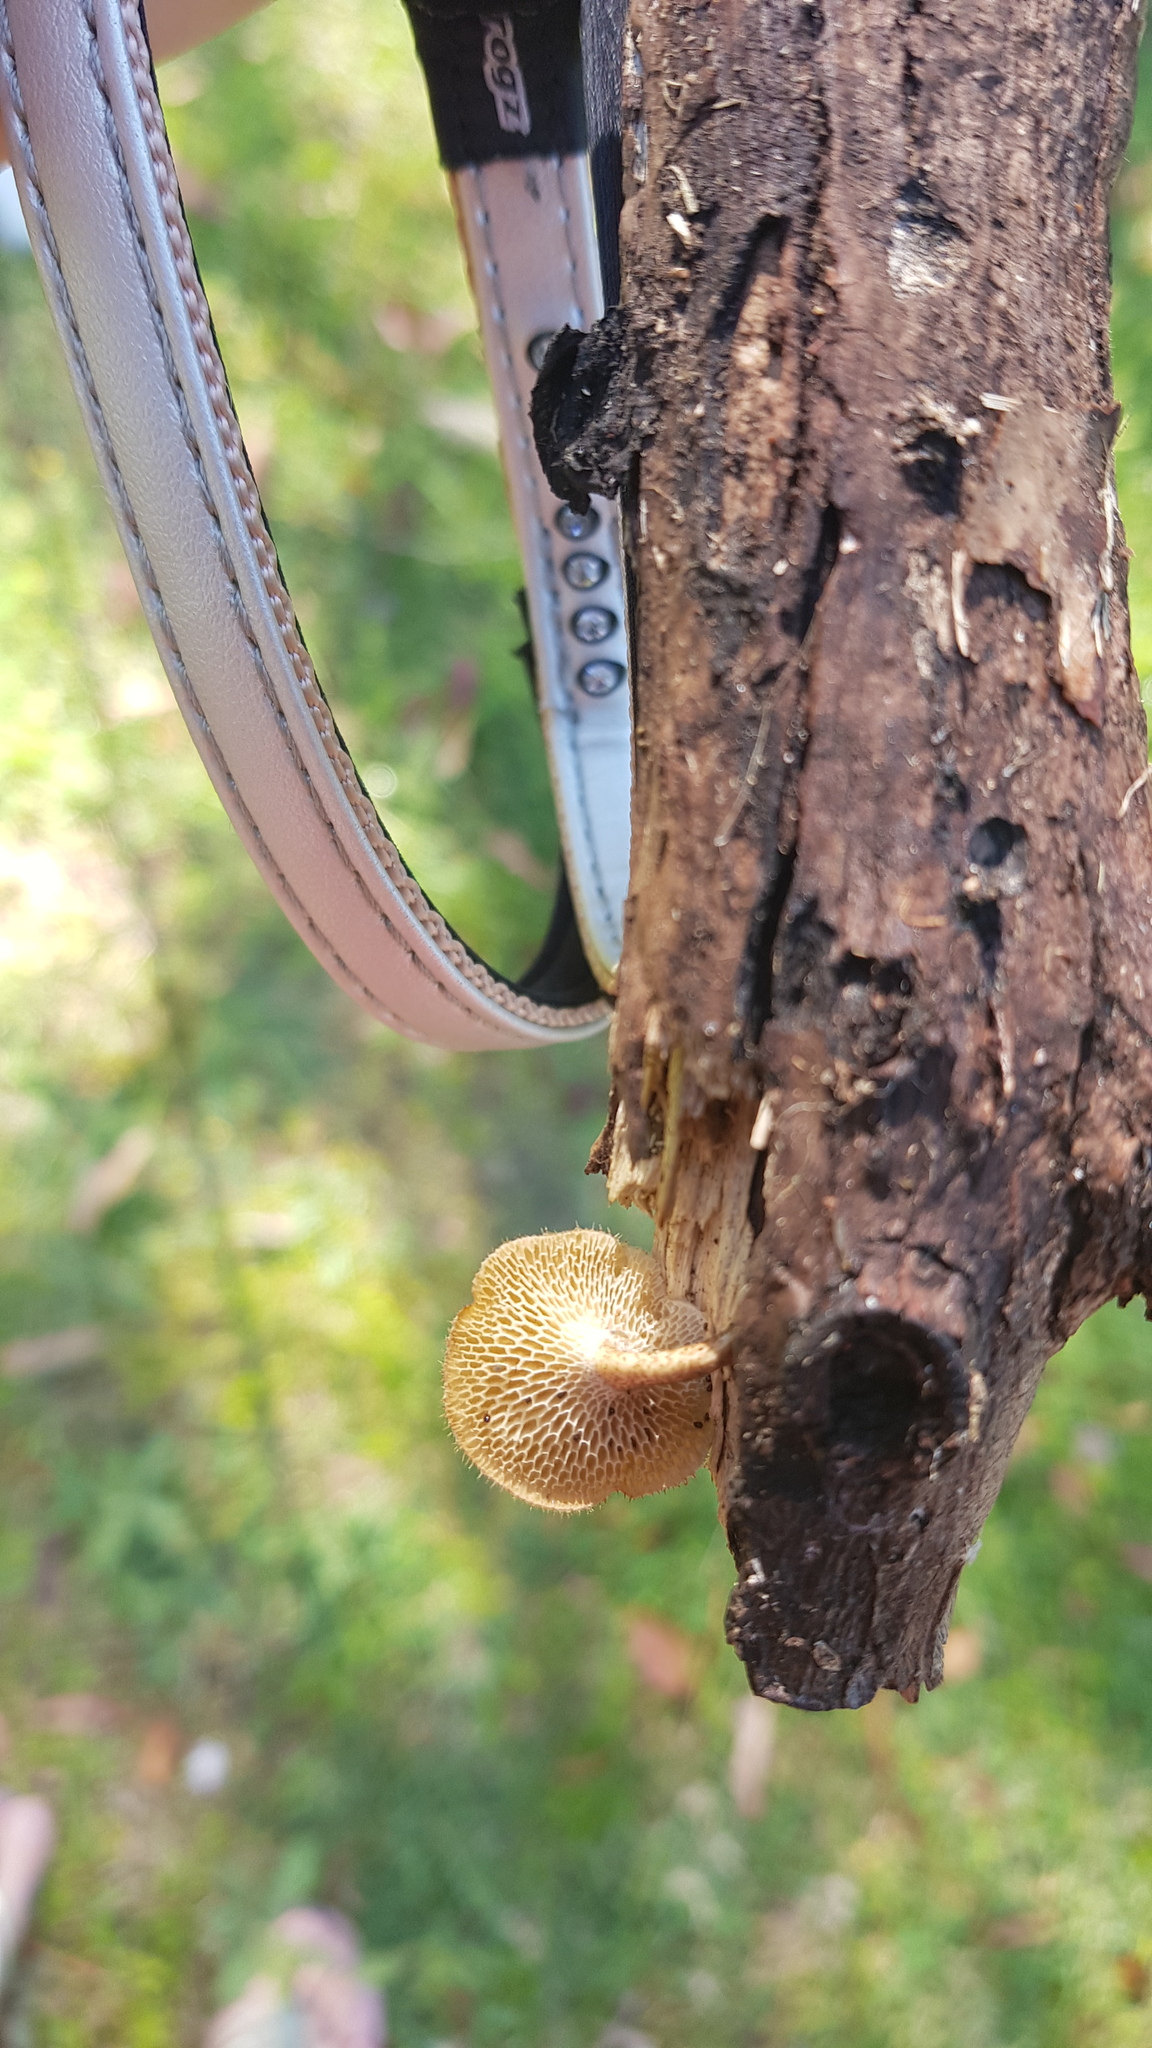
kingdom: Fungi
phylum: Basidiomycota
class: Agaricomycetes
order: Polyporales
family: Polyporaceae
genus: Lentinus
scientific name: Lentinus arcularius
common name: Spring polypore
